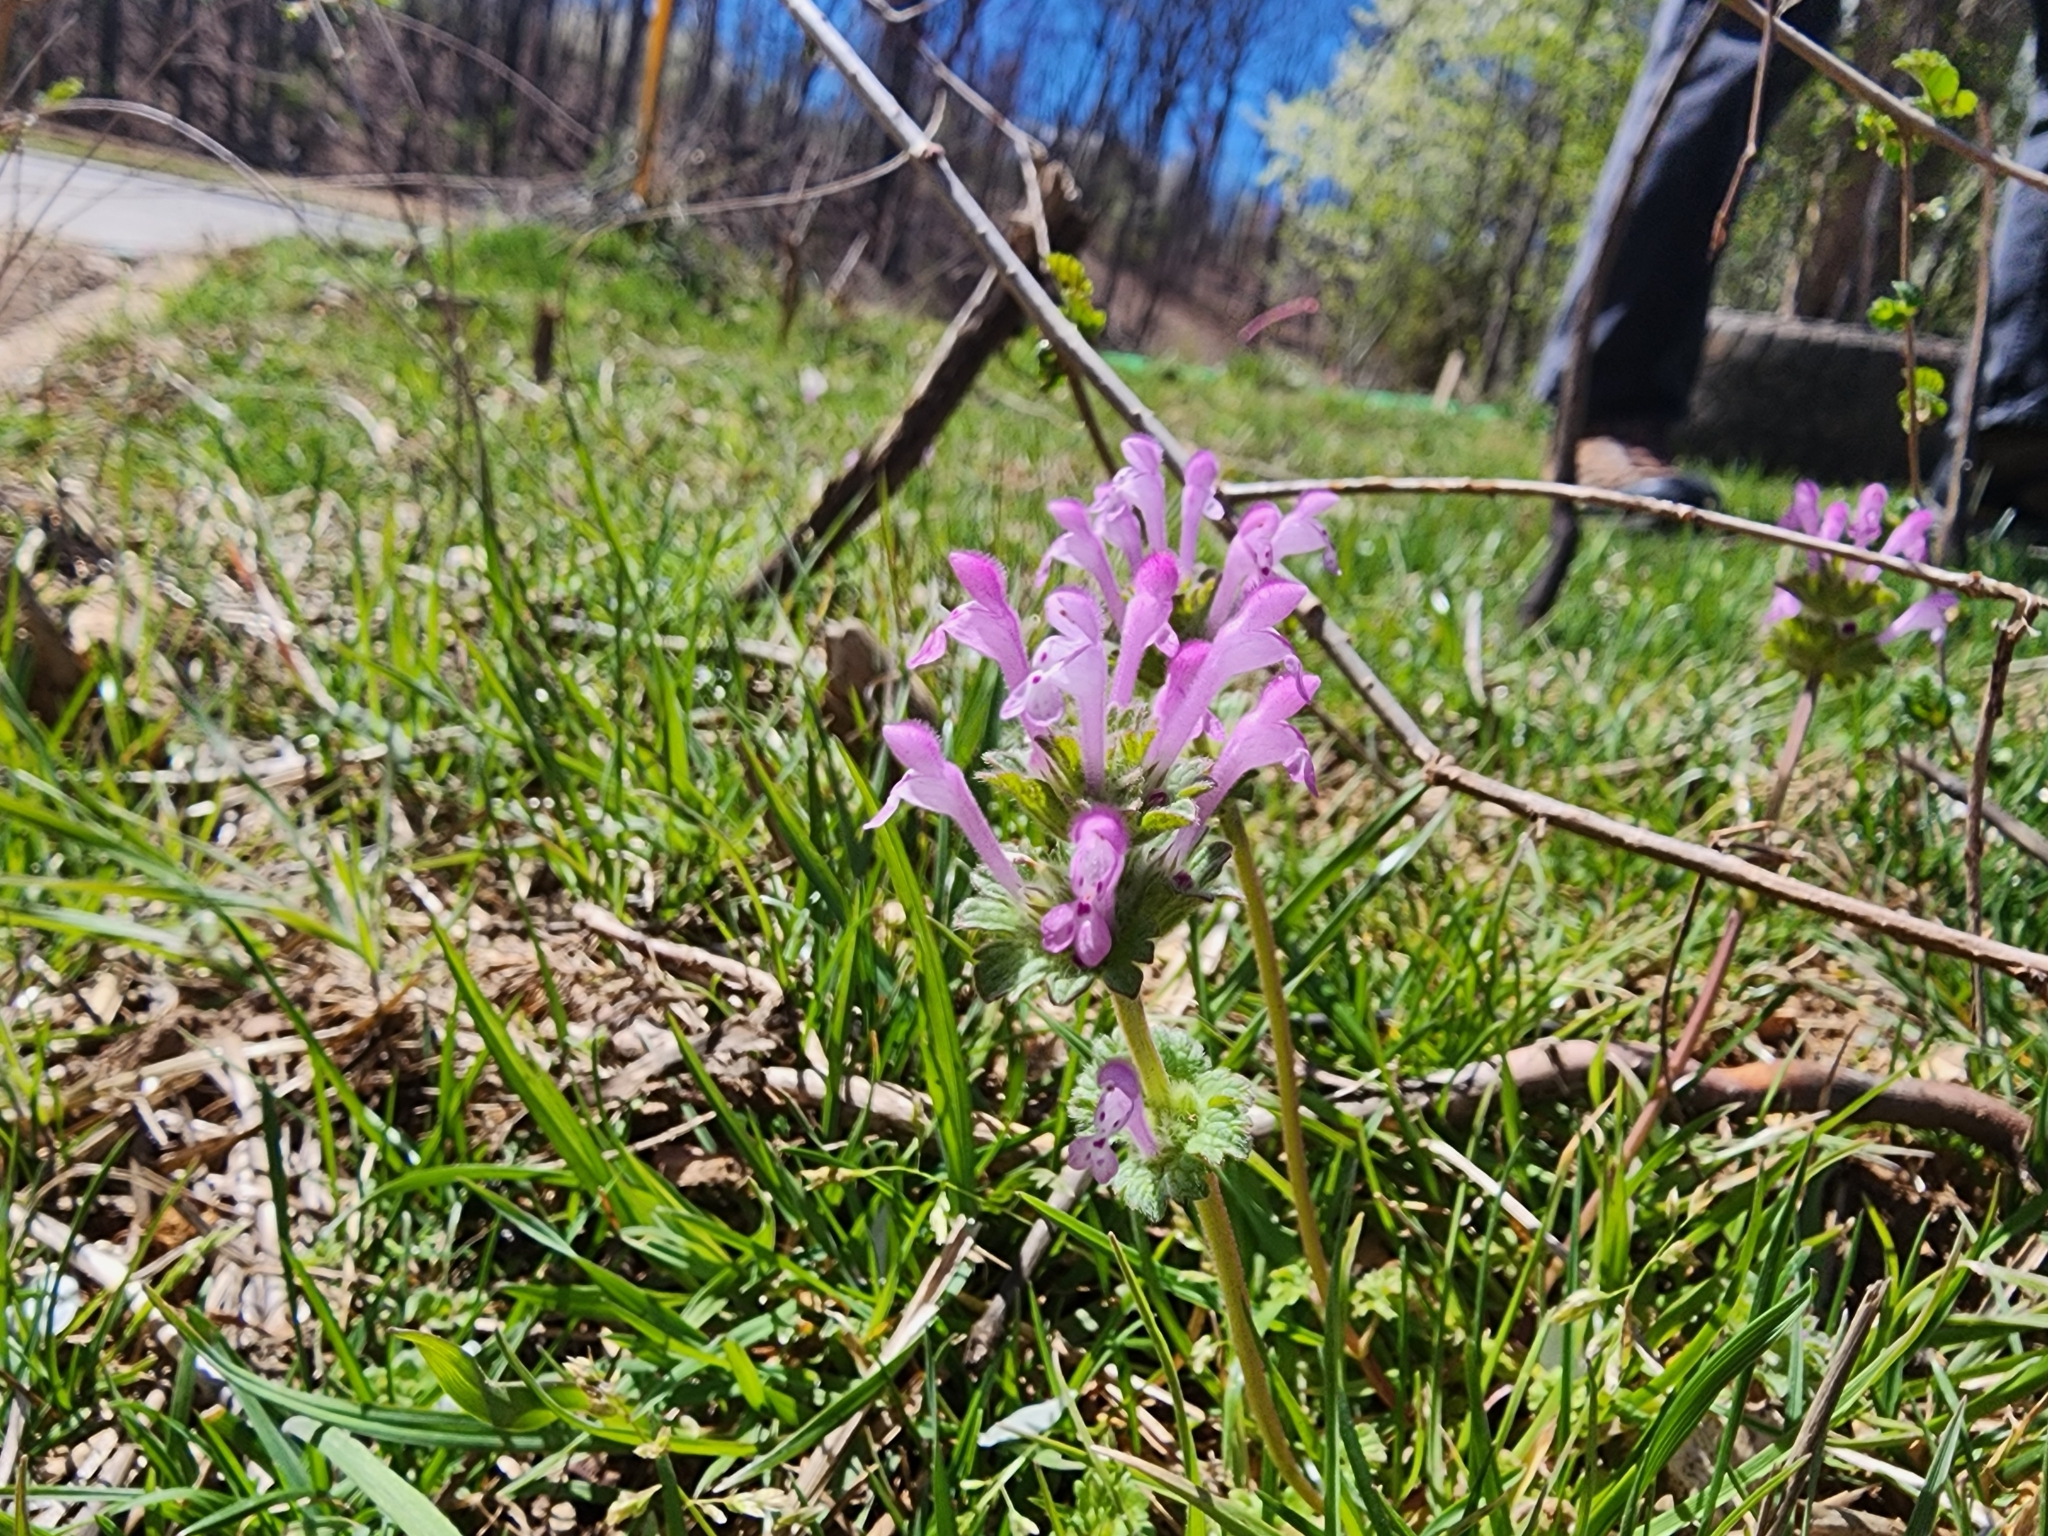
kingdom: Plantae
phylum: Tracheophyta
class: Magnoliopsida
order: Lamiales
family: Lamiaceae
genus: Lamium
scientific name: Lamium amplexicaule
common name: Henbit dead-nettle
